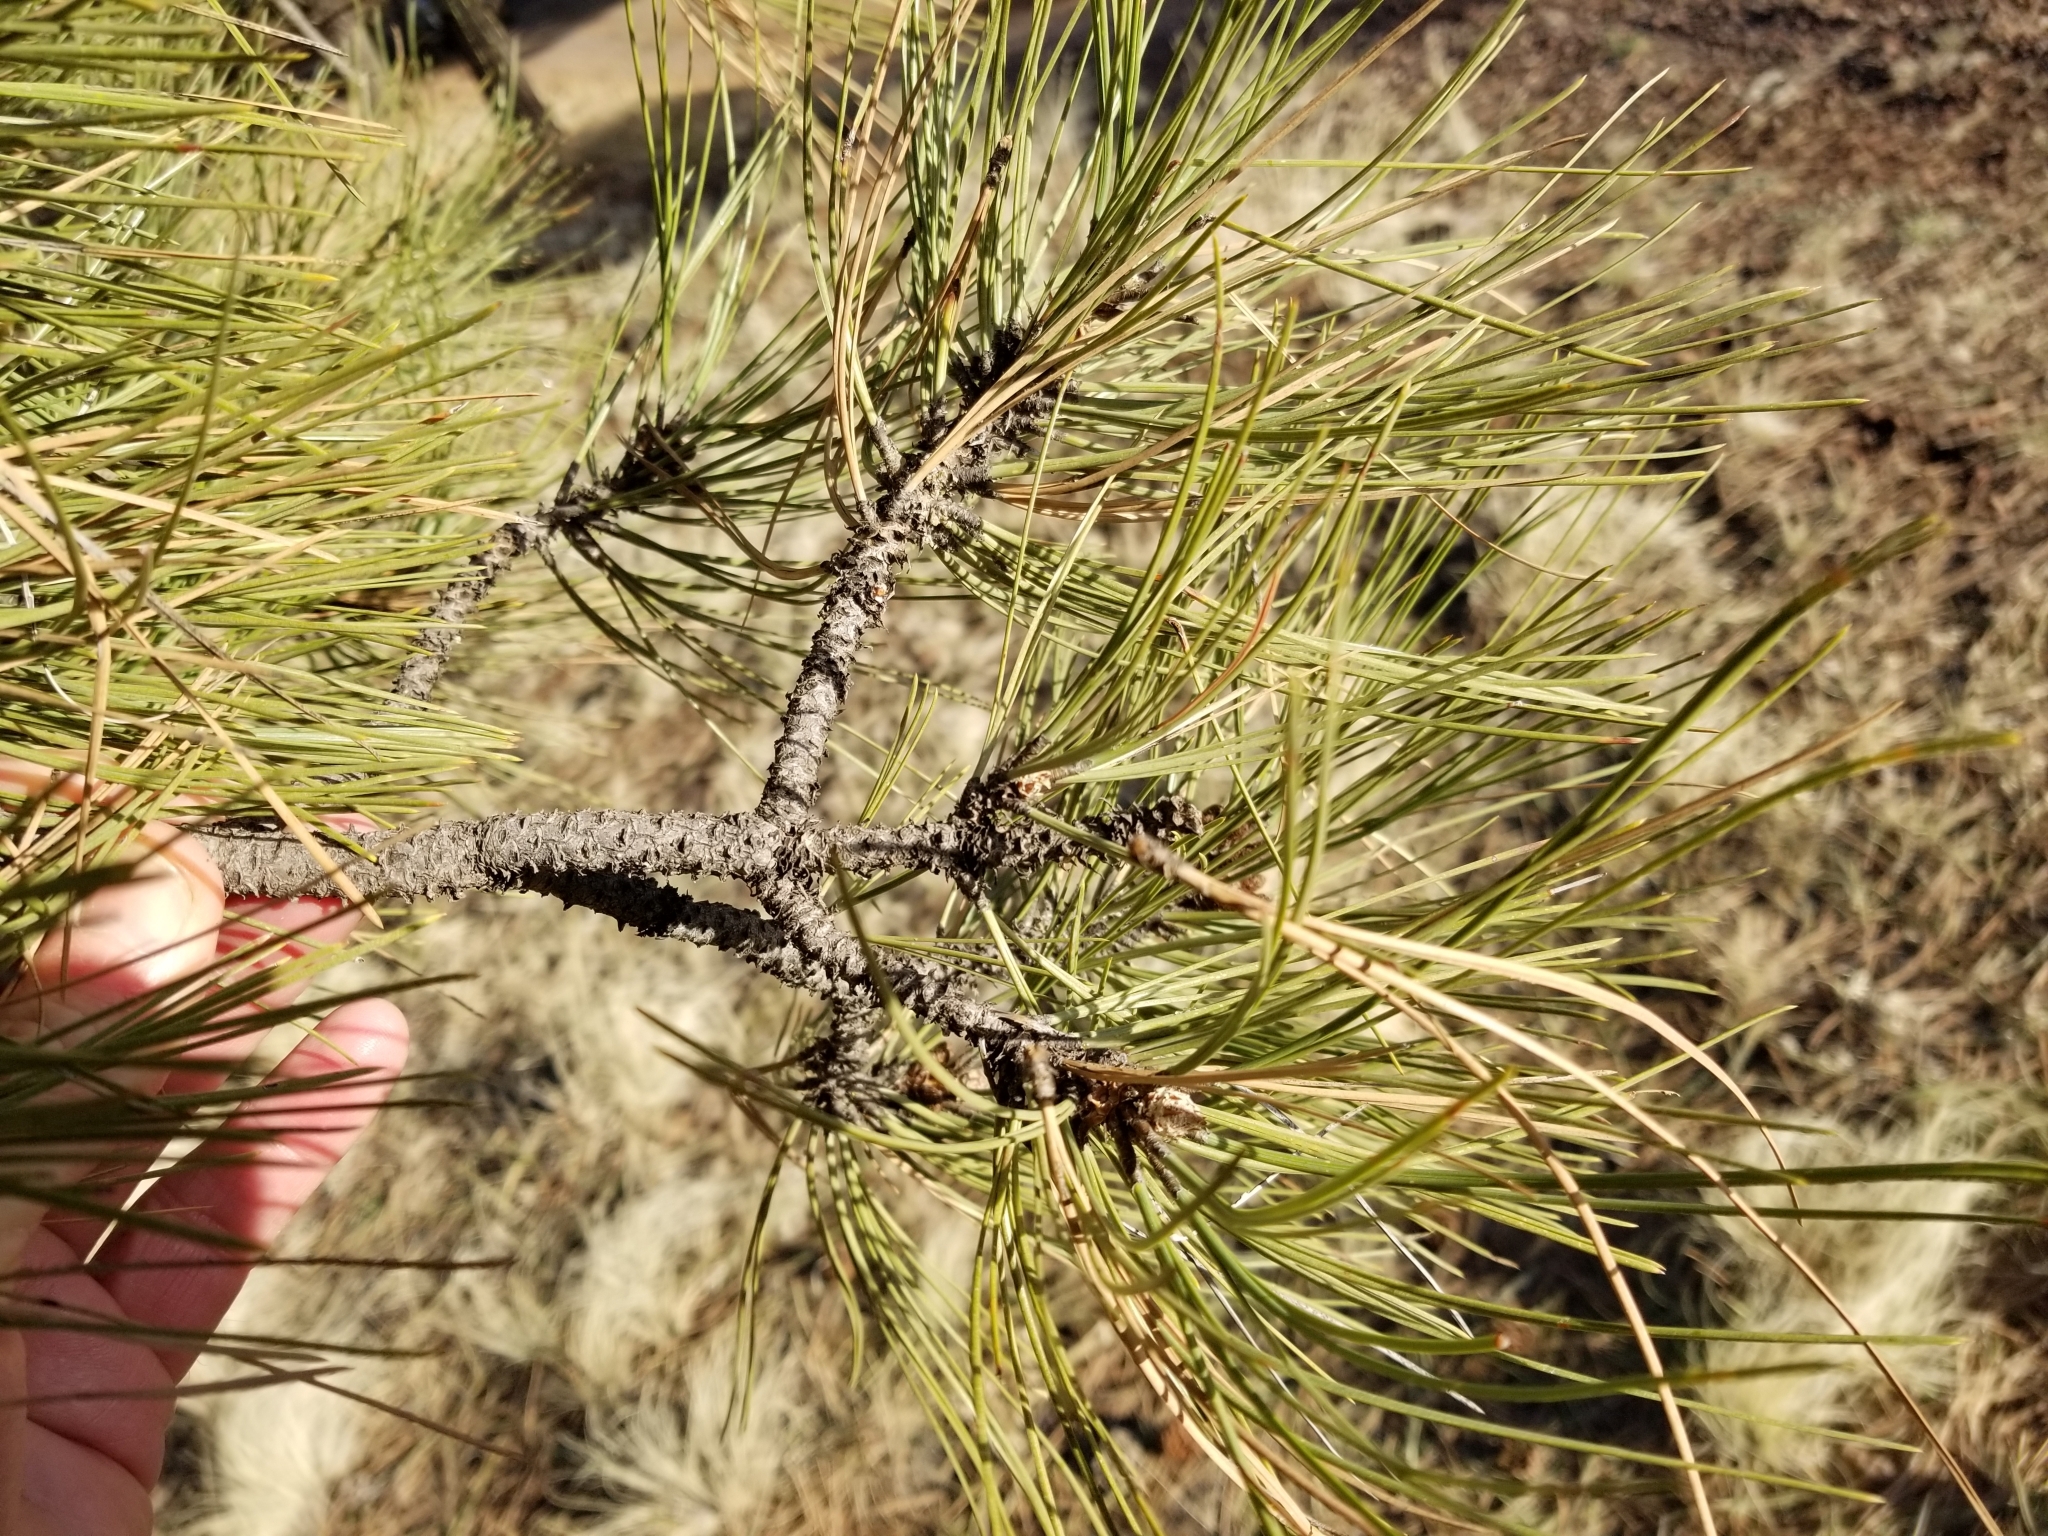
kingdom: Plantae
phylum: Tracheophyta
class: Pinopsida
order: Pinales
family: Pinaceae
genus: Pinus
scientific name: Pinus ponderosa
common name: Western yellow-pine
